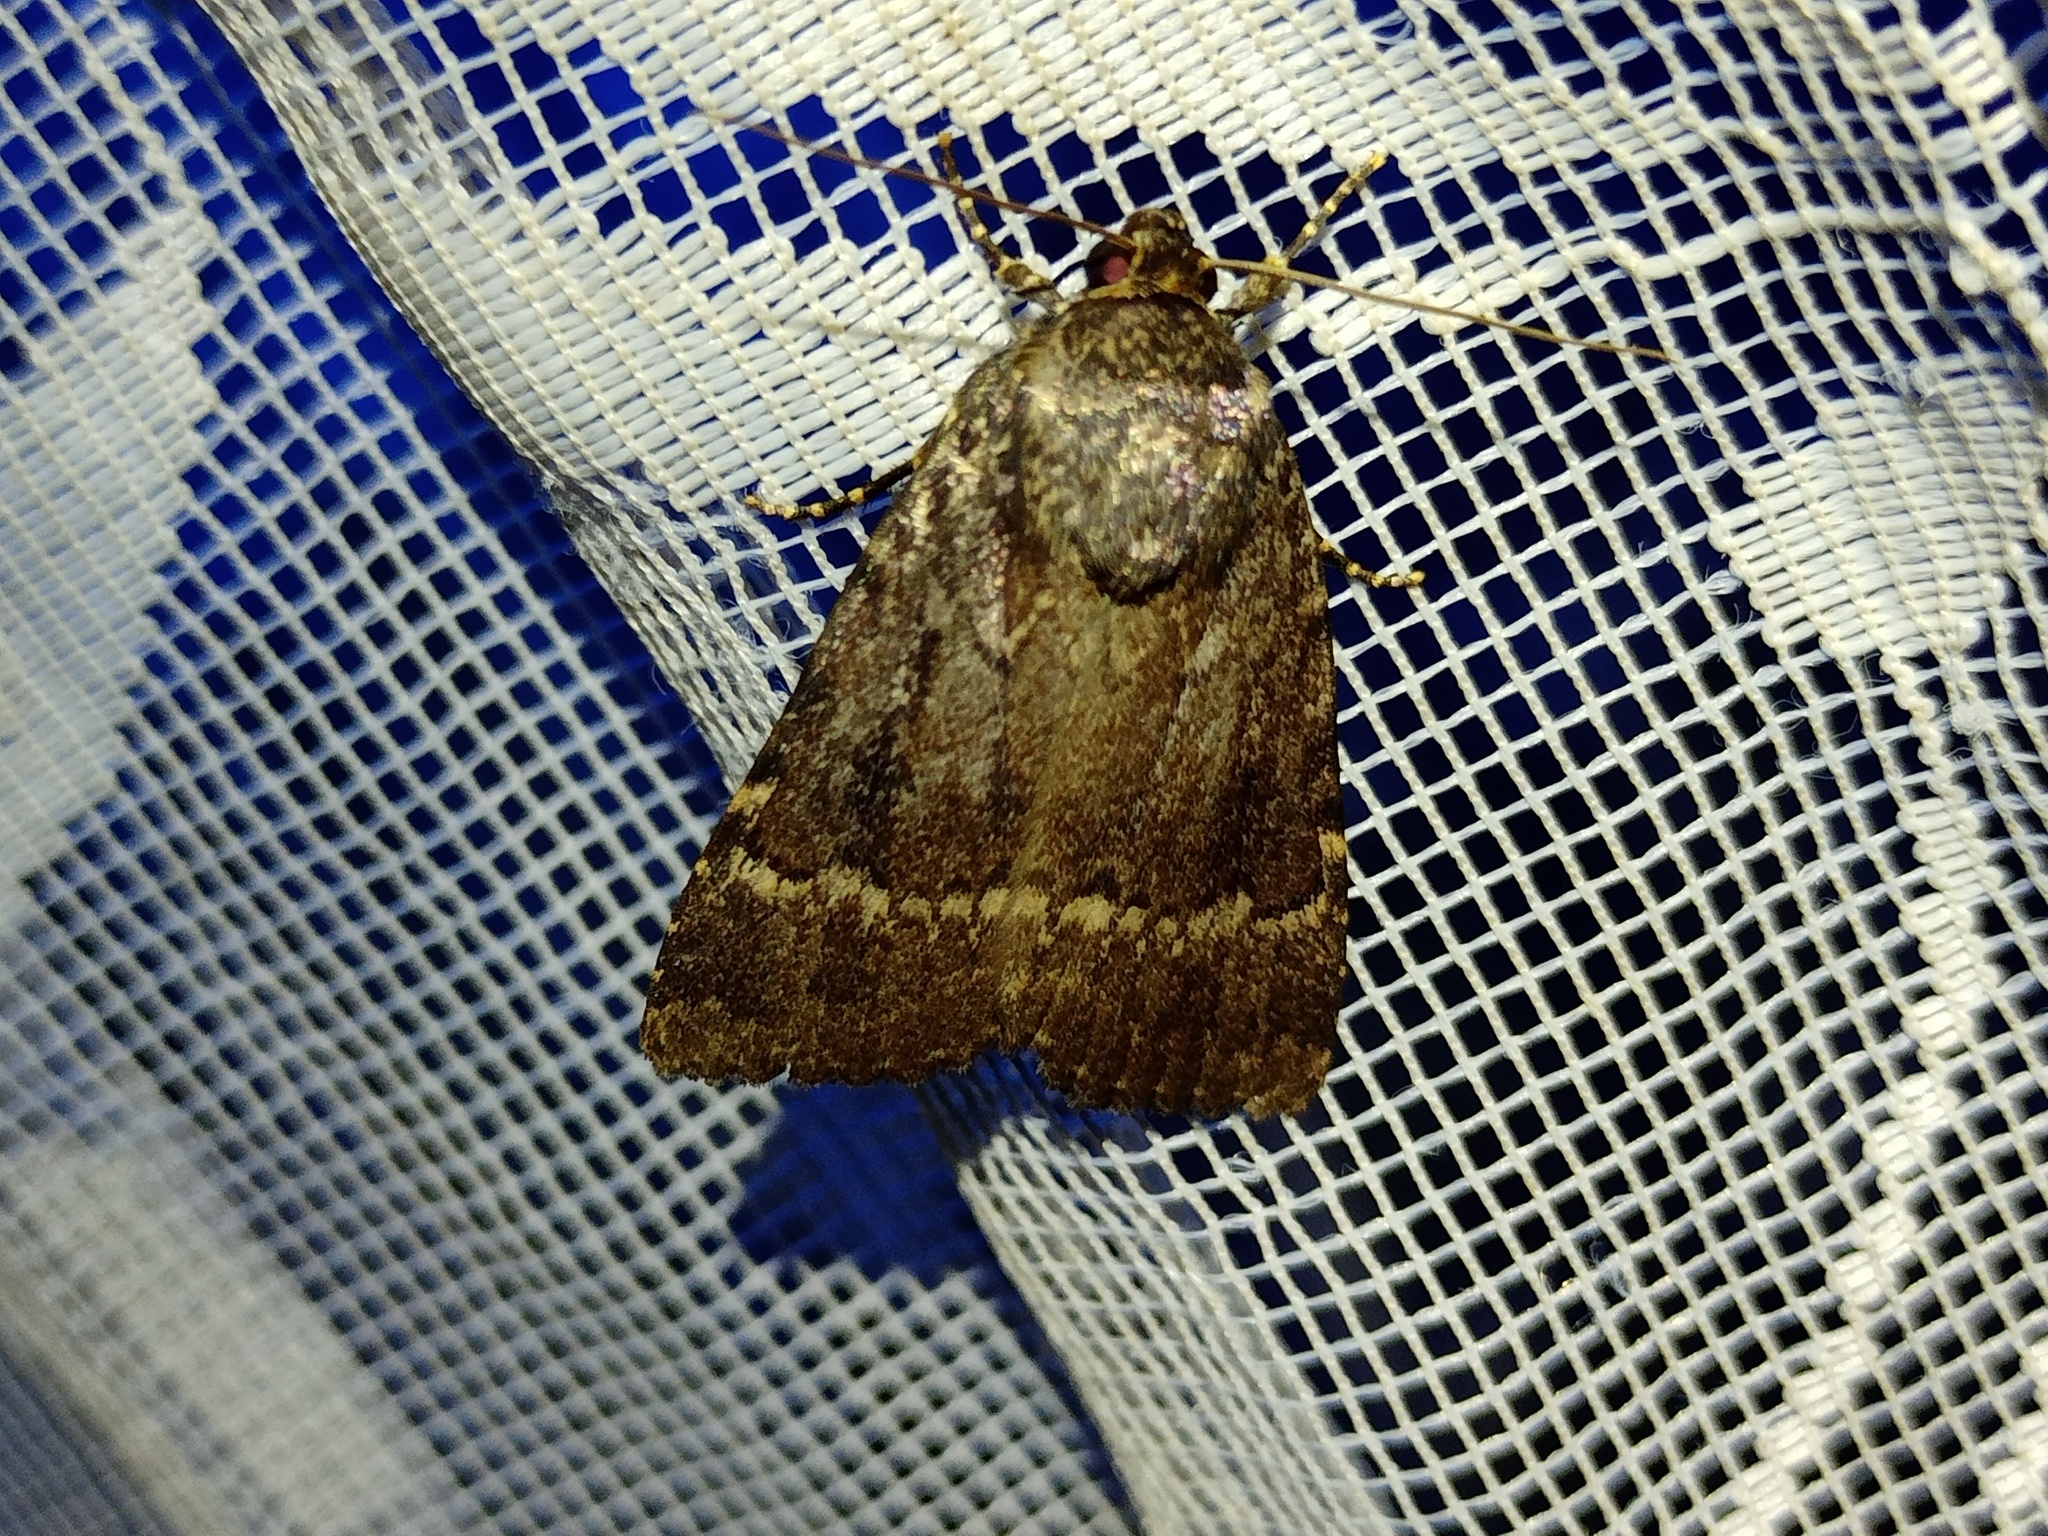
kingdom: Animalia
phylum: Arthropoda
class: Insecta
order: Lepidoptera
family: Noctuidae
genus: Amphipyra
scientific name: Amphipyra pyramidea
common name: Copper underwing
